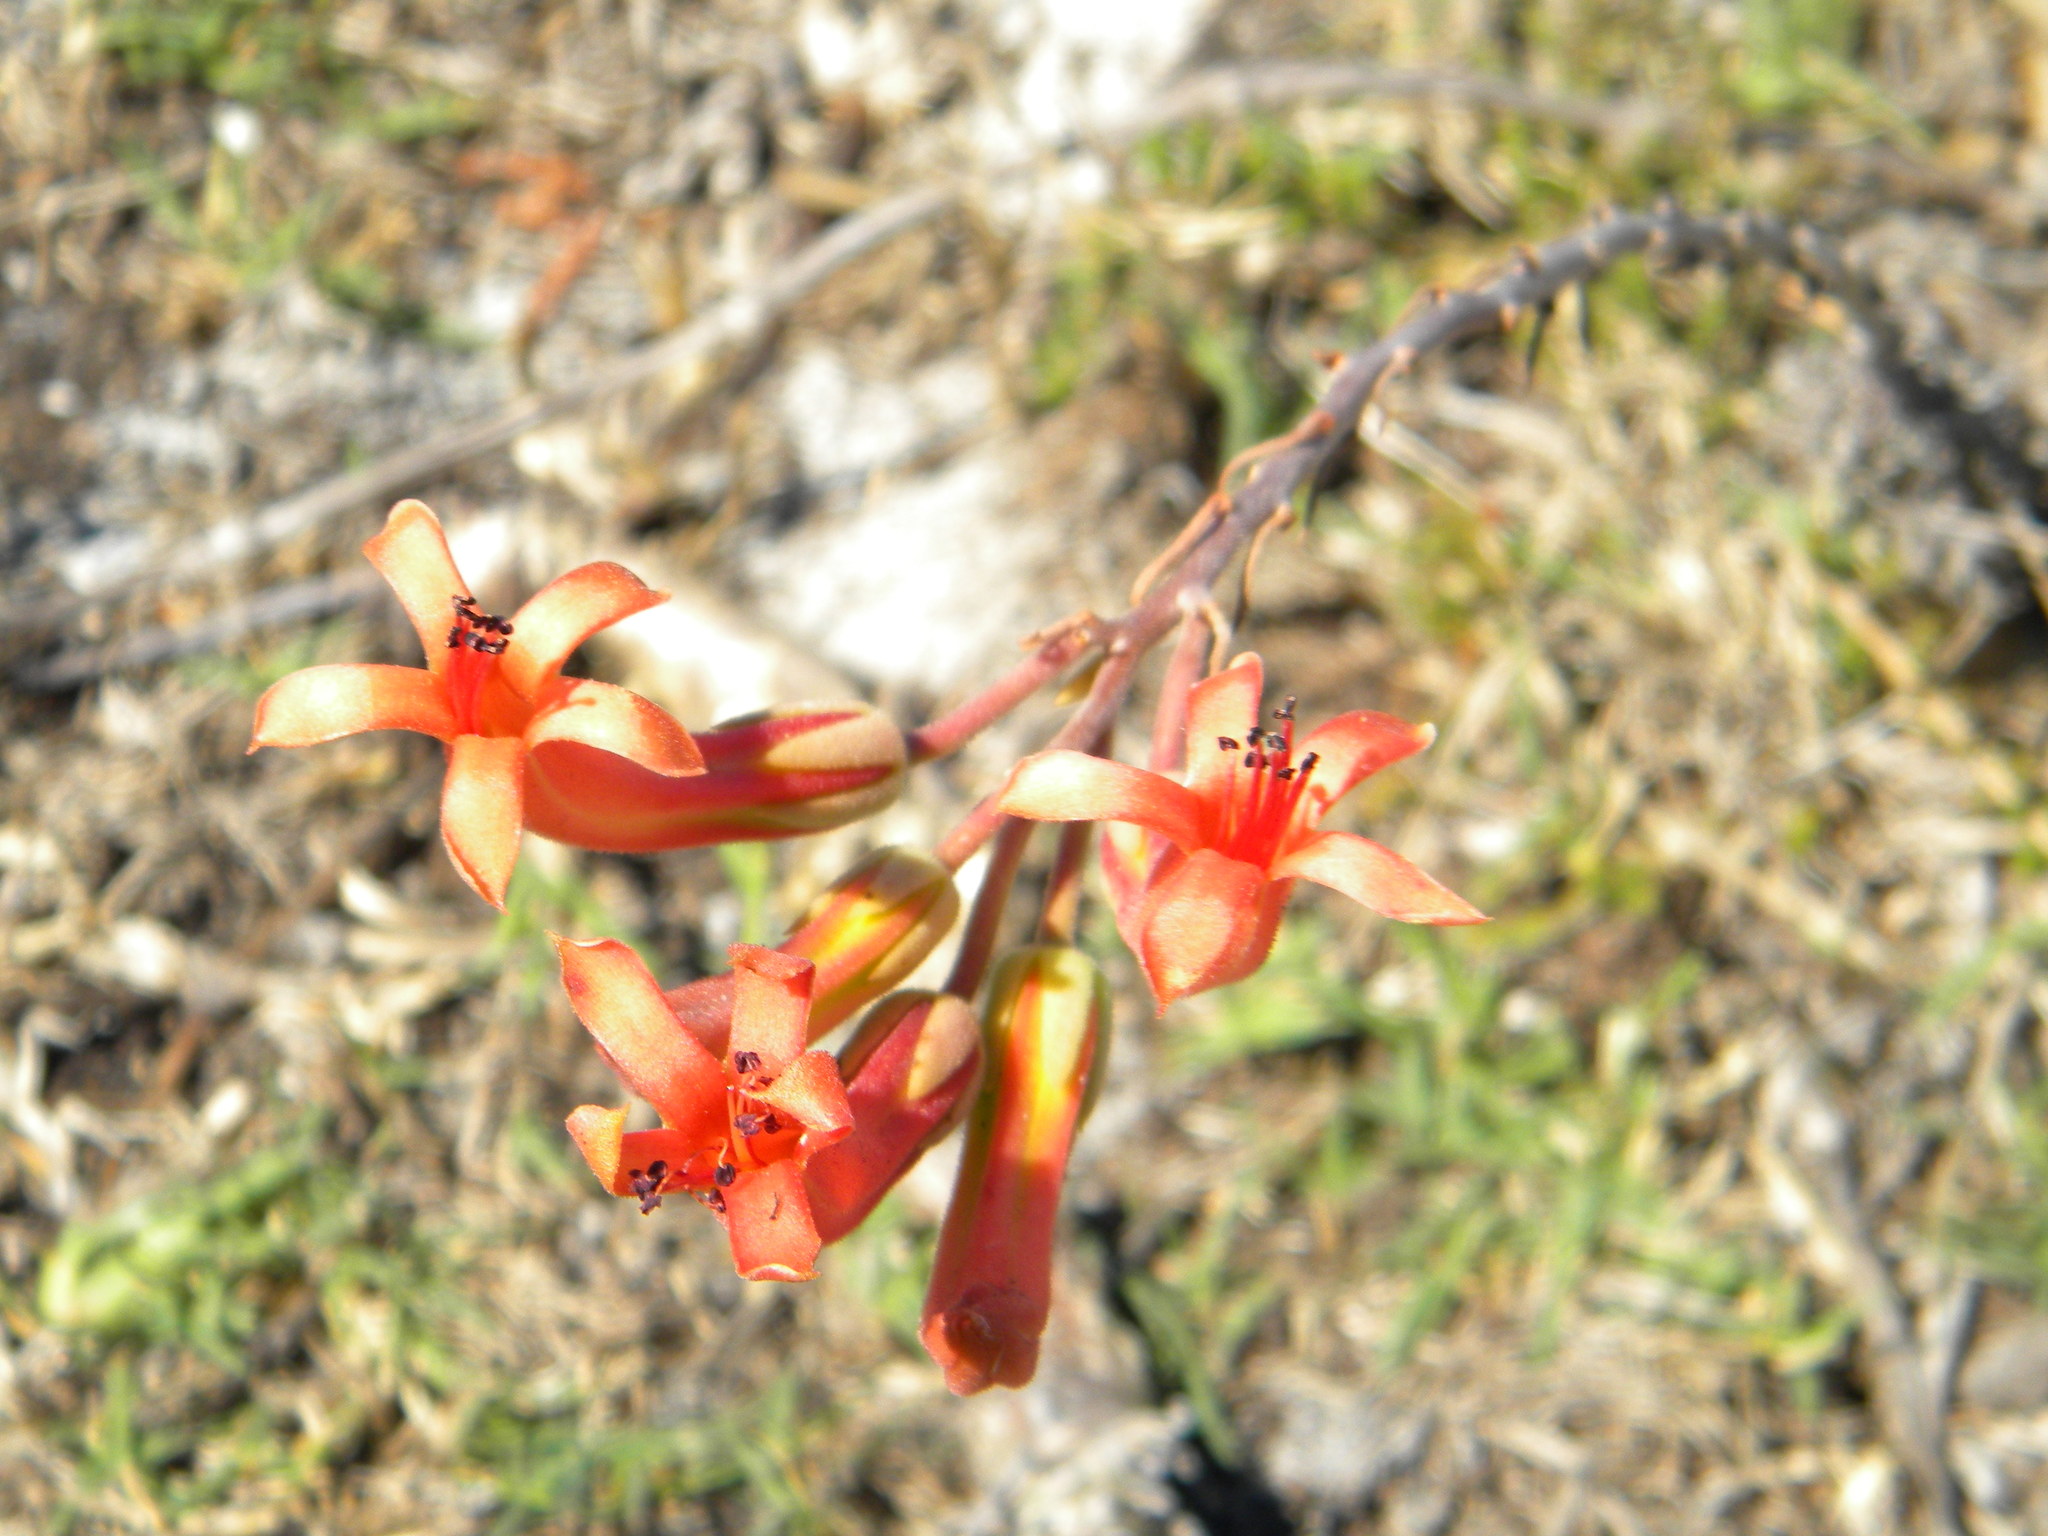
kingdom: Plantae
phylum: Tracheophyta
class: Magnoliopsida
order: Saxifragales
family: Crassulaceae
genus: Tylecodon
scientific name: Tylecodon grandiflorus
